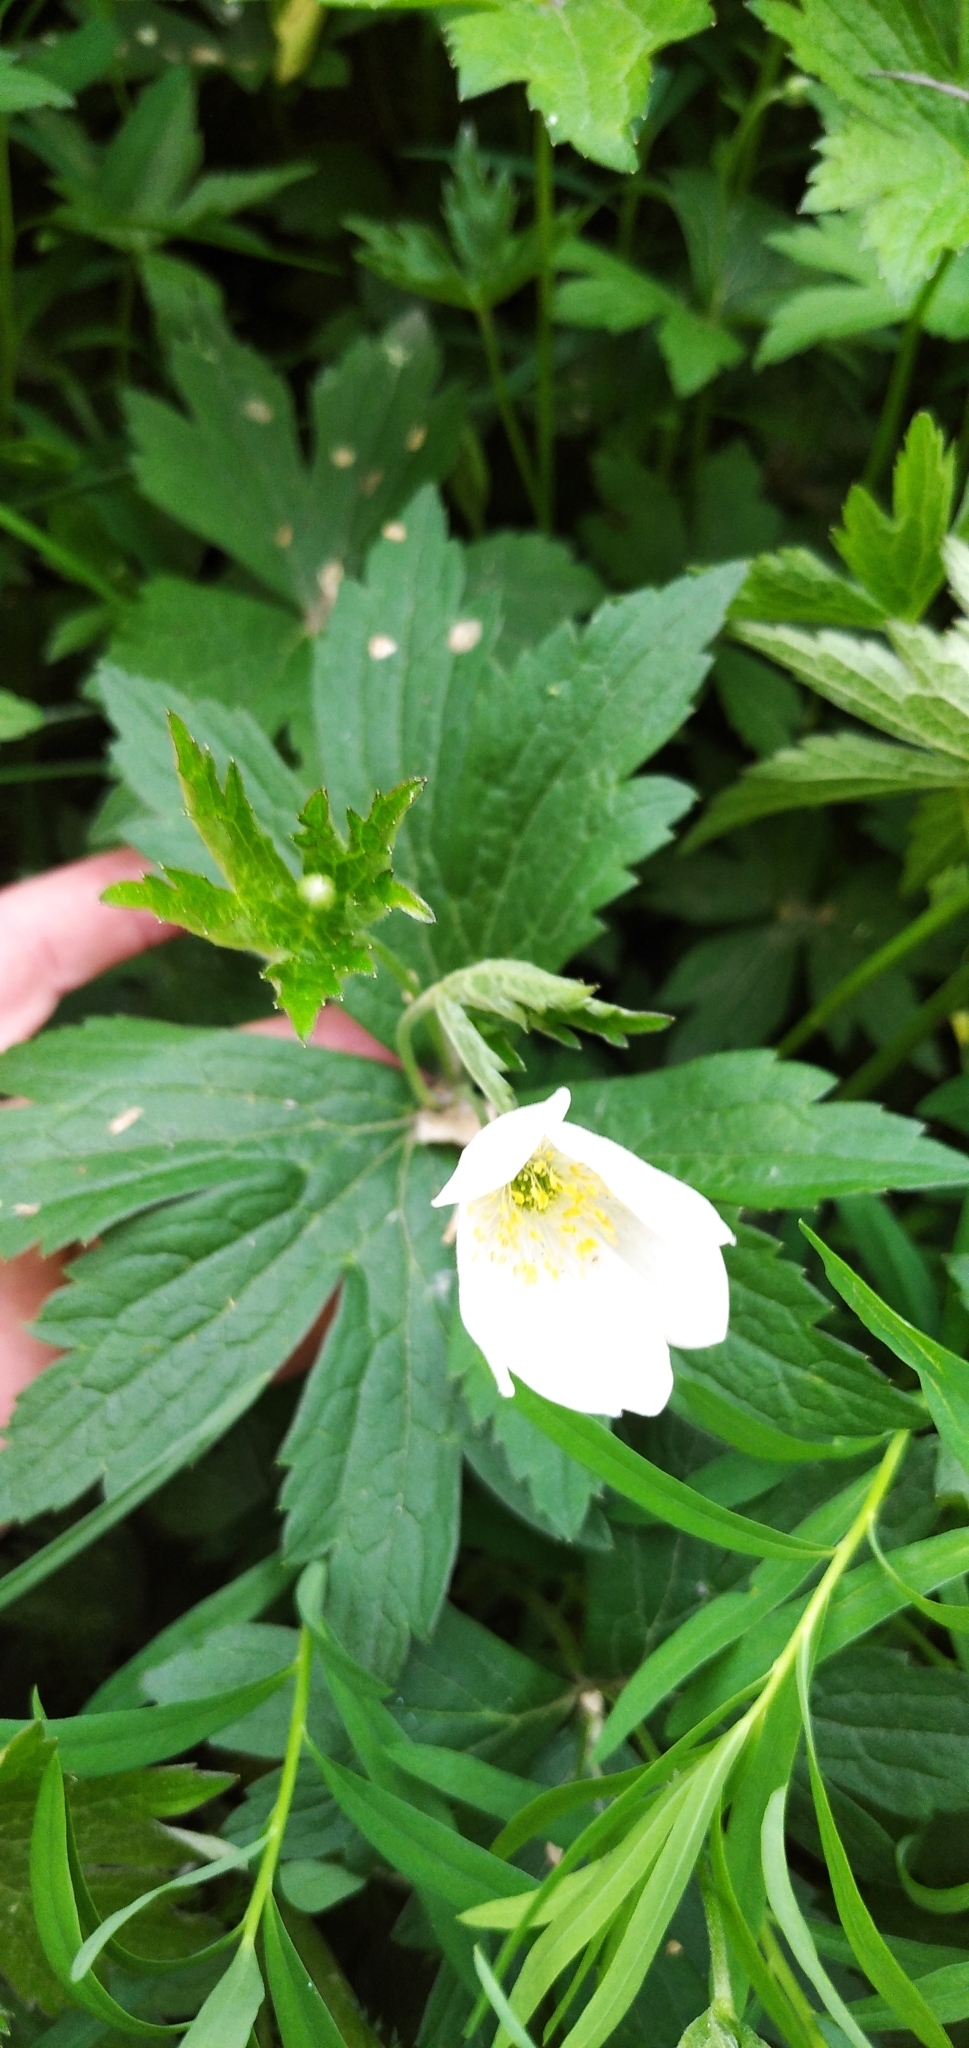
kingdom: Plantae
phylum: Tracheophyta
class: Magnoliopsida
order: Ranunculales
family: Ranunculaceae
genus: Anemonastrum
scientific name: Anemonastrum canadense
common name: Canada anemone
